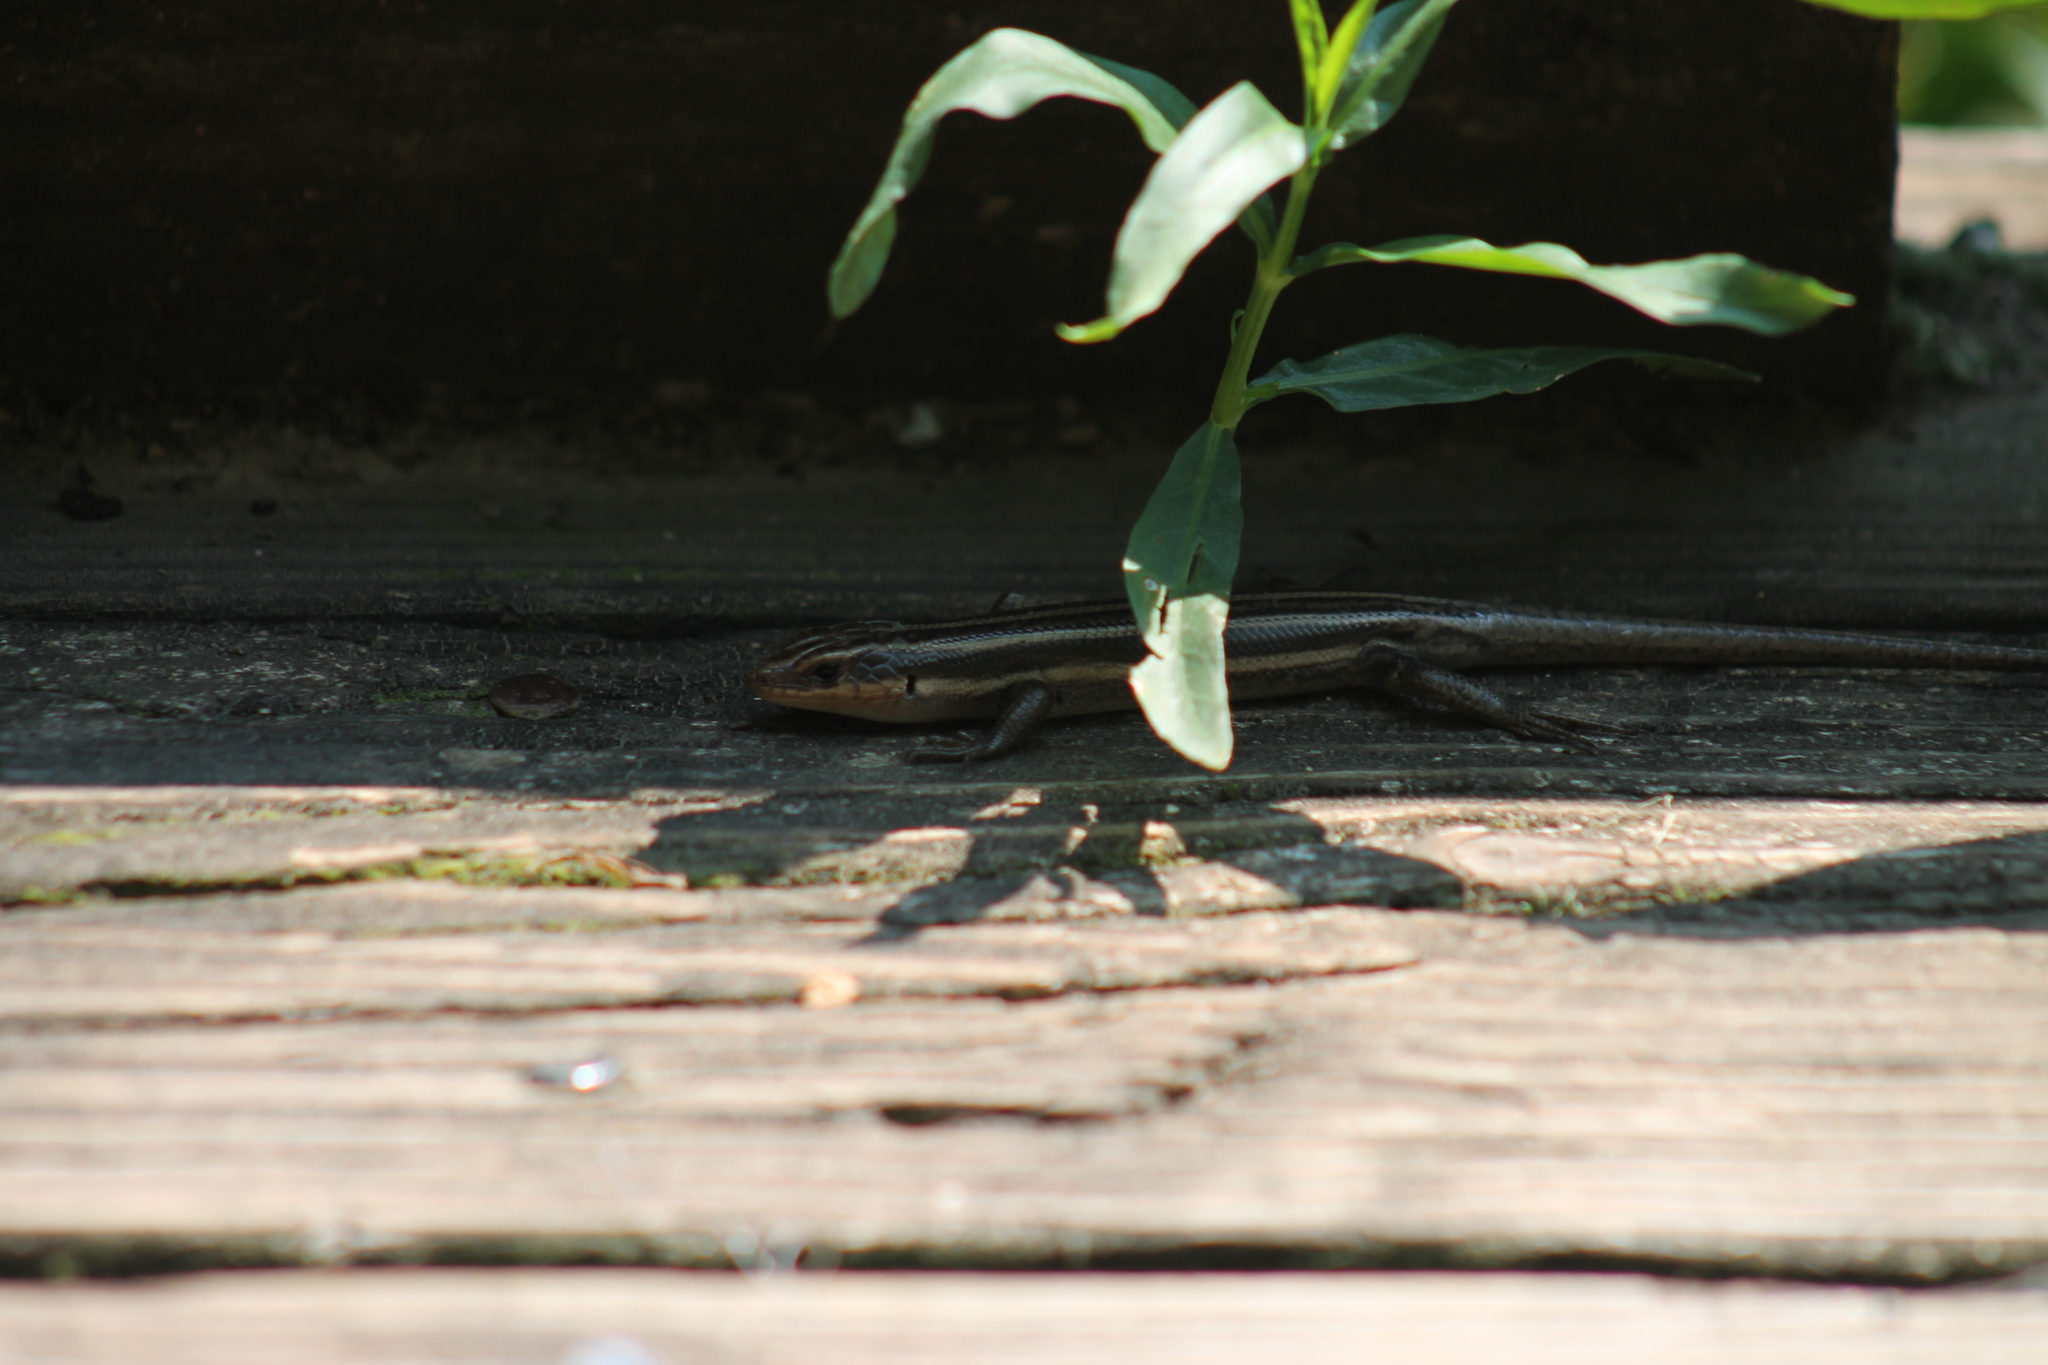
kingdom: Animalia
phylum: Chordata
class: Squamata
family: Scincidae
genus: Plestiodon
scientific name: Plestiodon fasciatus
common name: Five-lined skink
